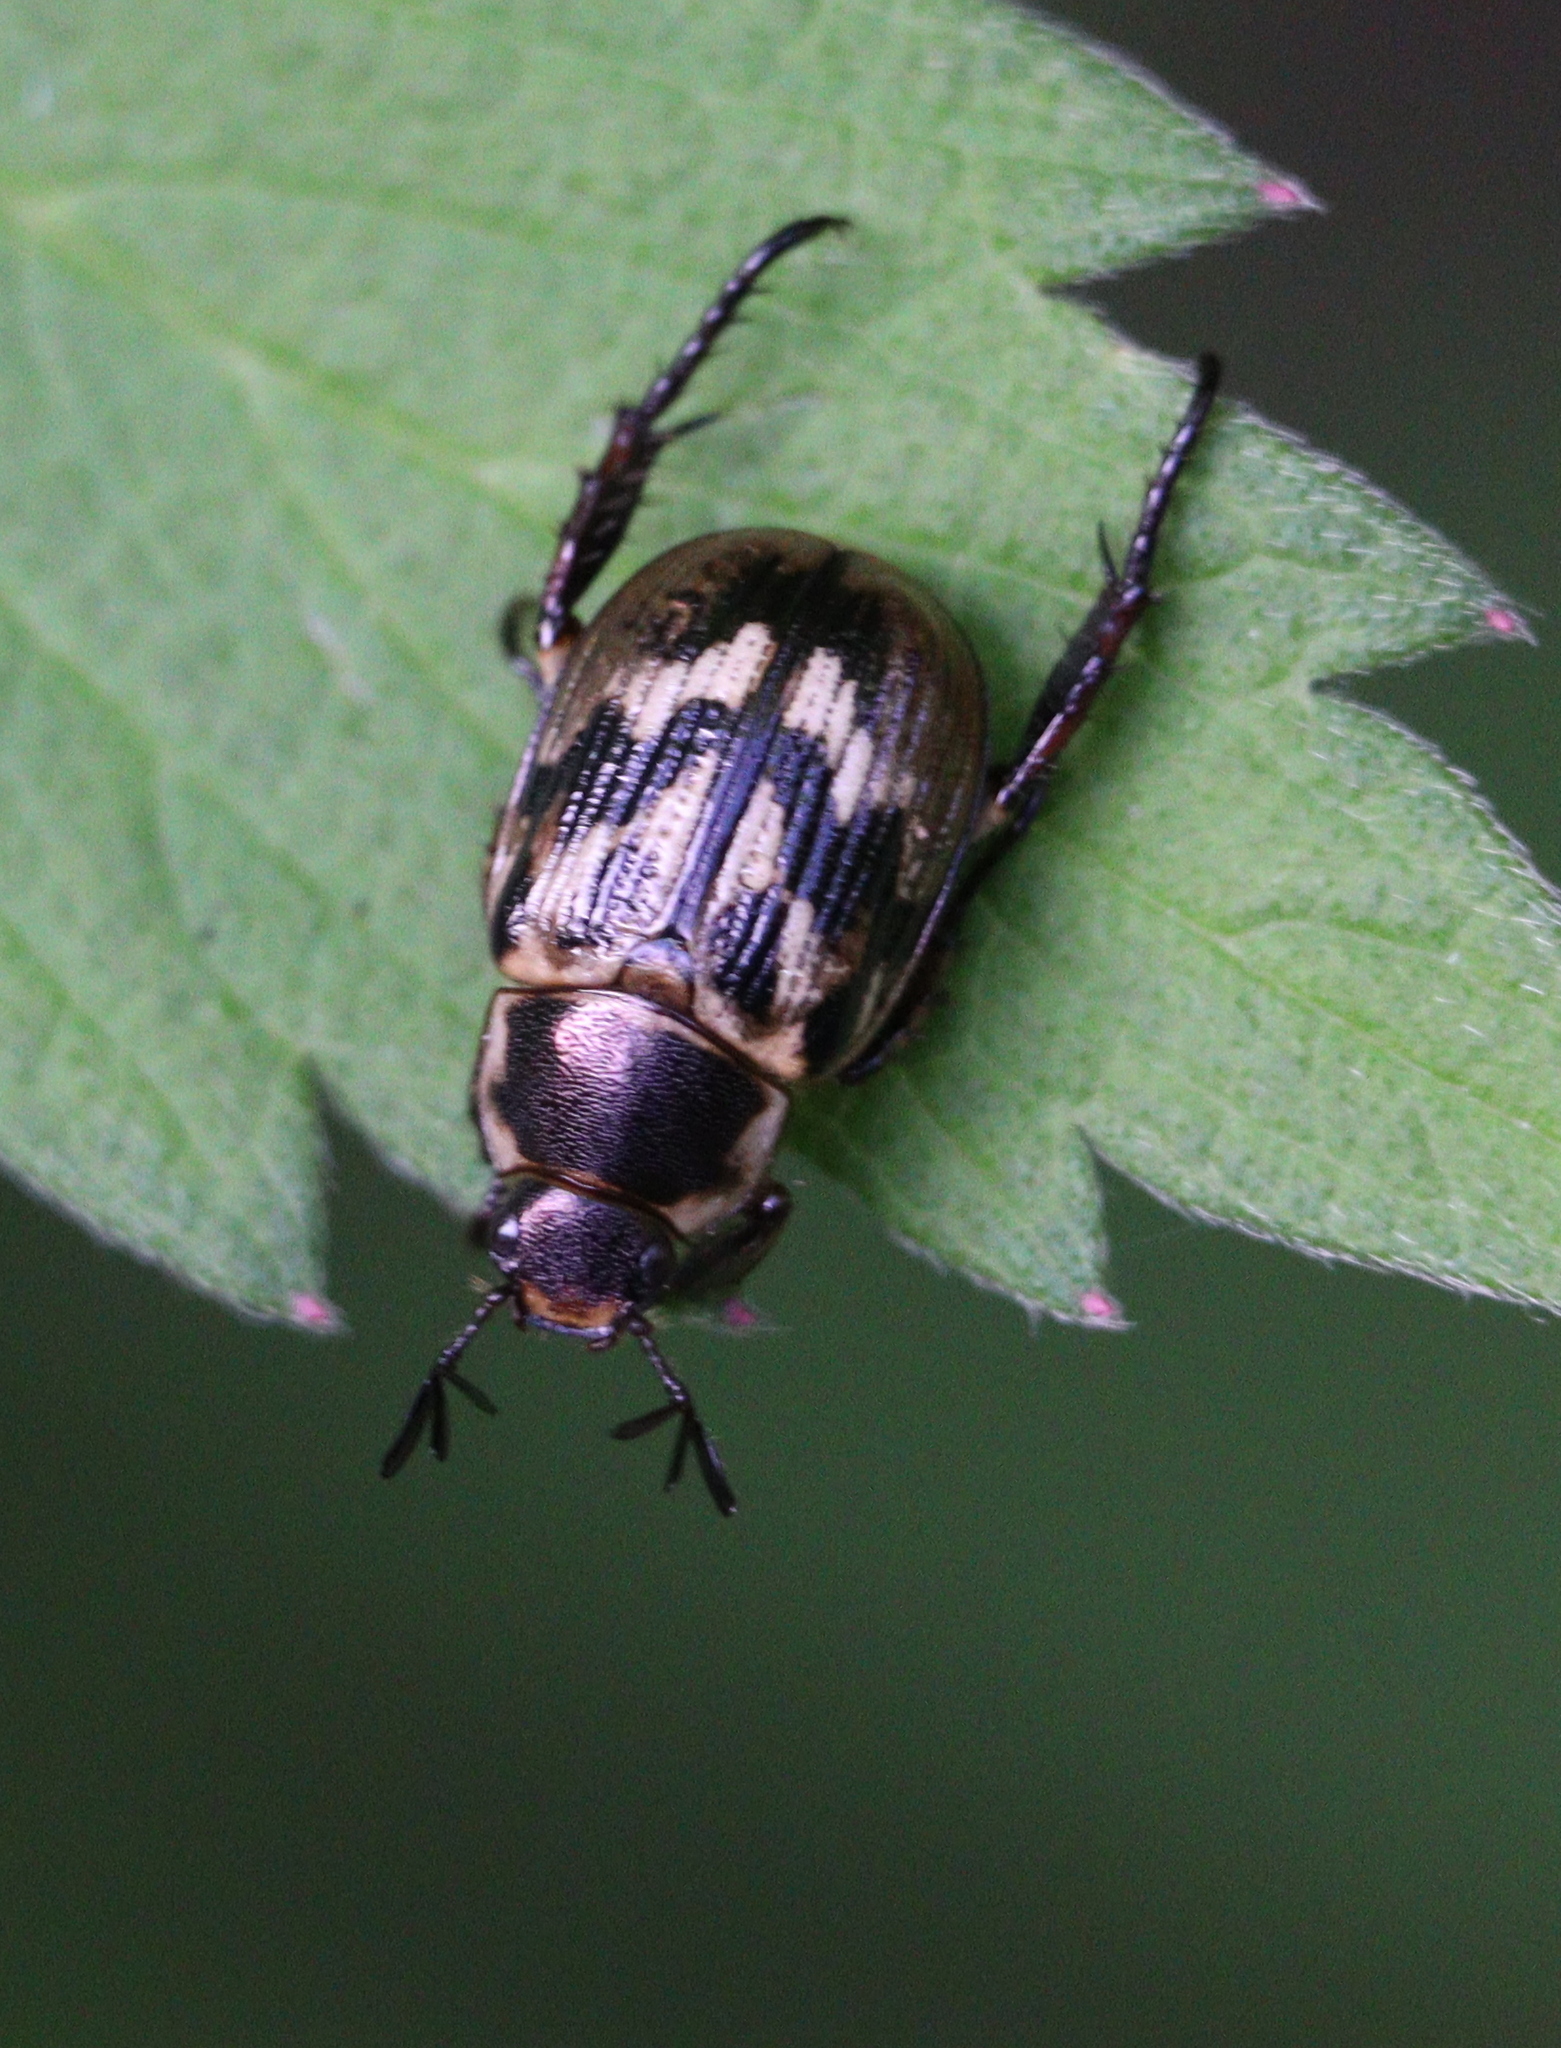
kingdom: Animalia
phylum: Arthropoda
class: Insecta
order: Coleoptera
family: Scarabaeidae
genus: Exomala
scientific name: Exomala orientalis
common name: Oriental beetle
